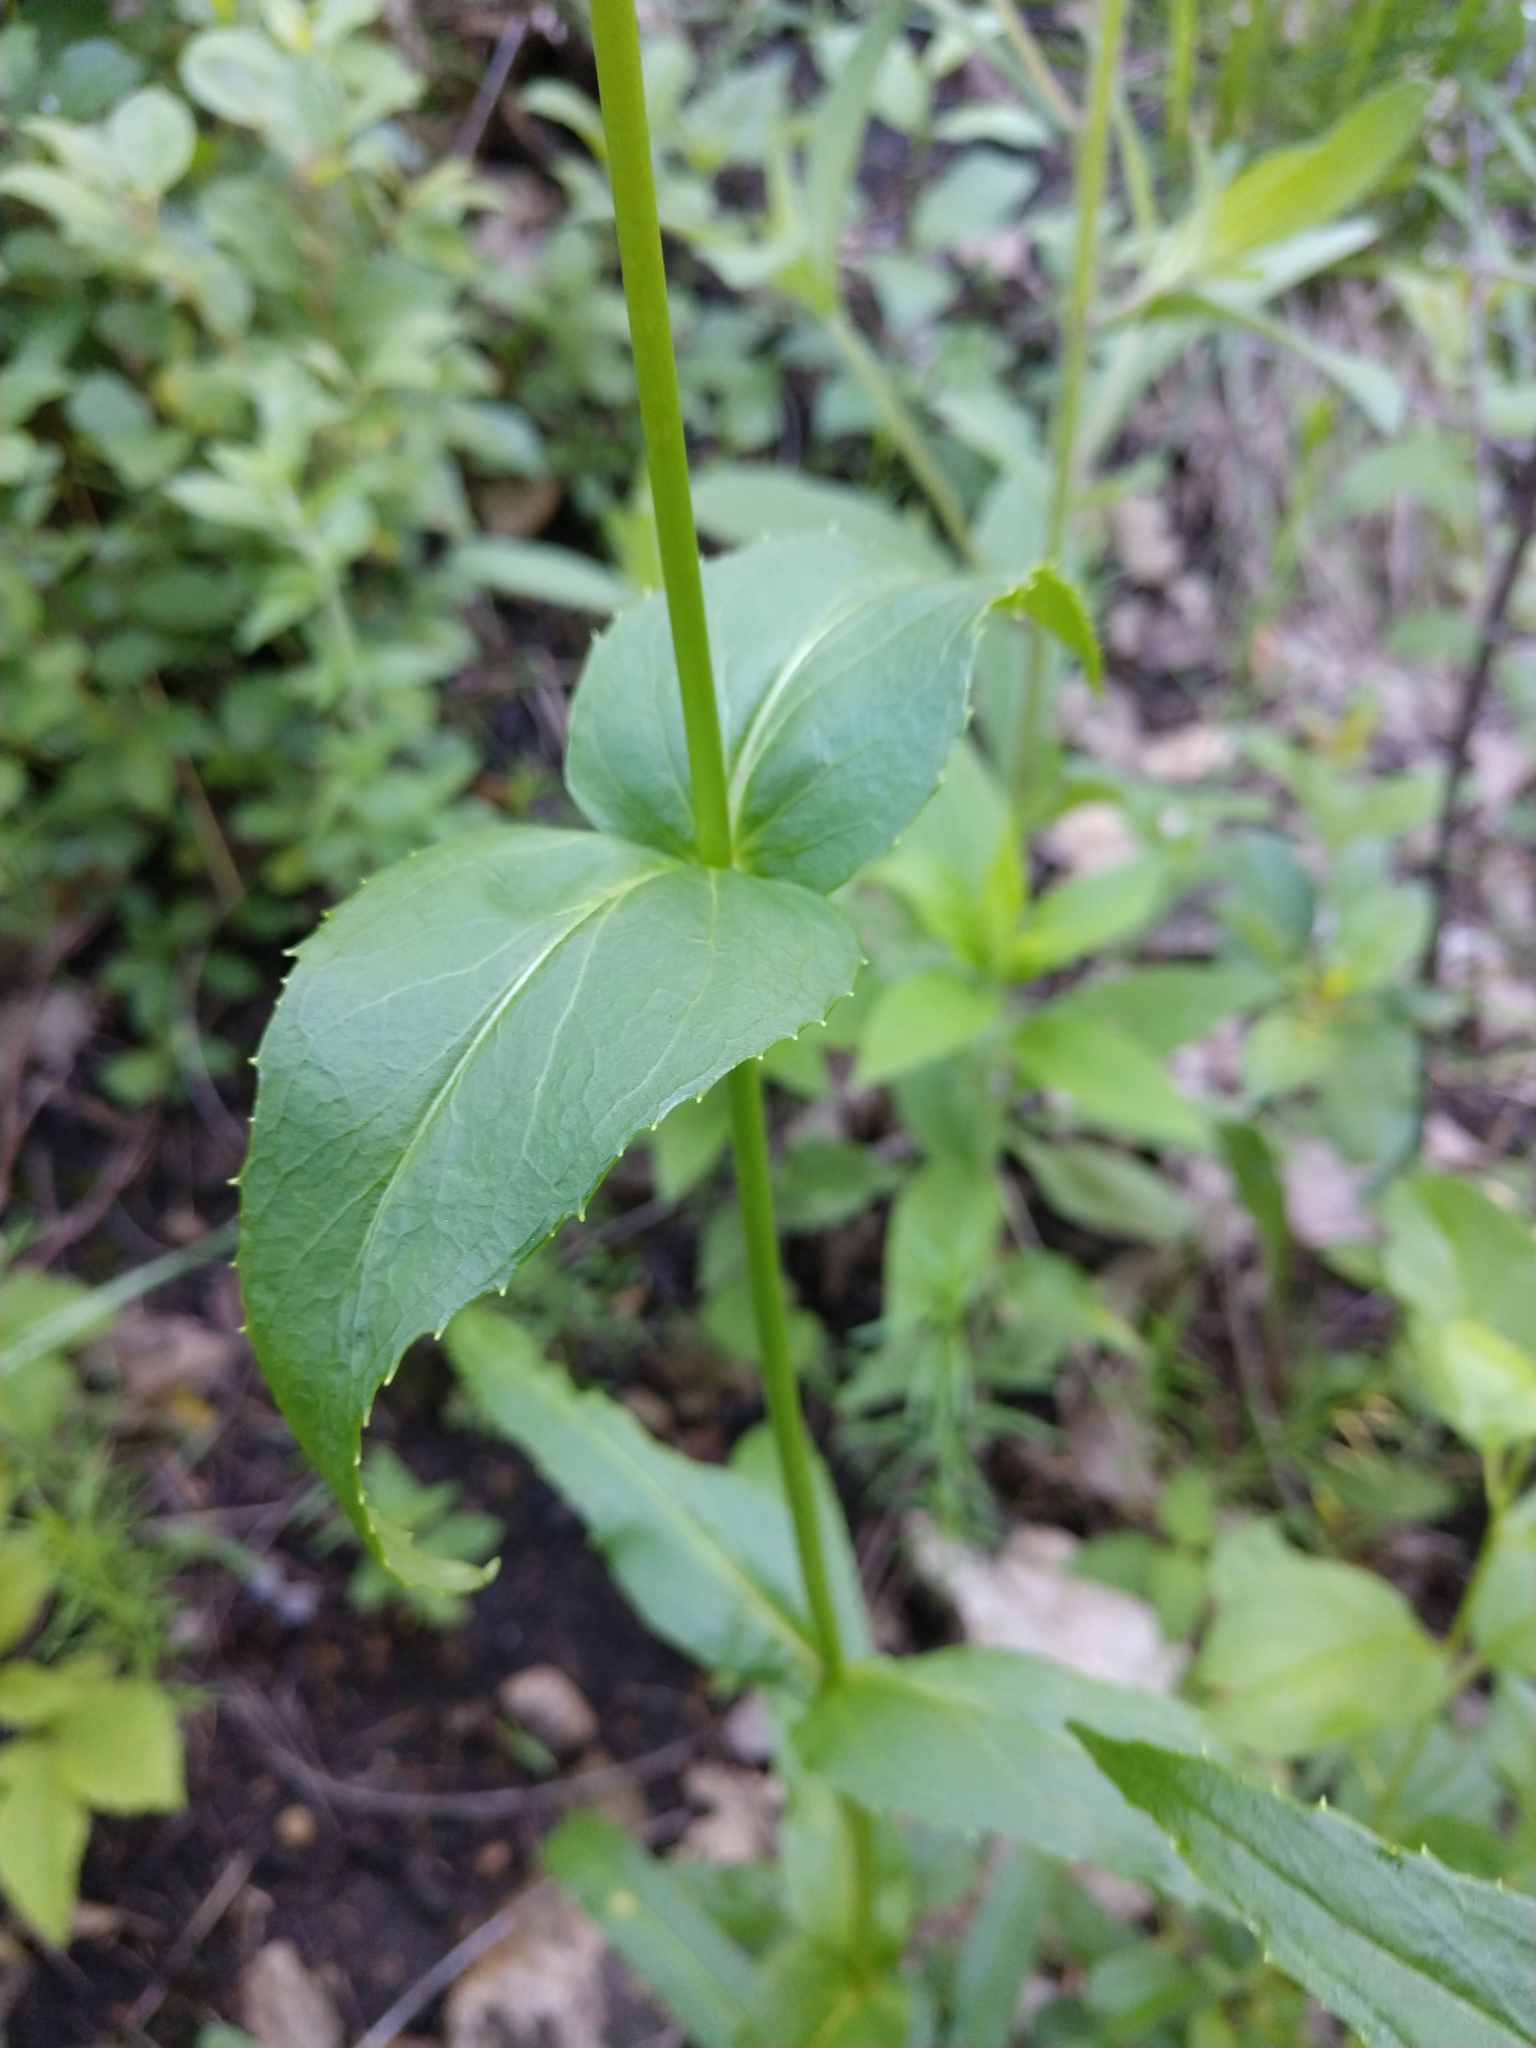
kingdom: Plantae
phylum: Tracheophyta
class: Magnoliopsida
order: Lamiales
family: Plantaginaceae
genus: Penstemon
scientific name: Penstemon digitalis
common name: Foxglove beardtongue
